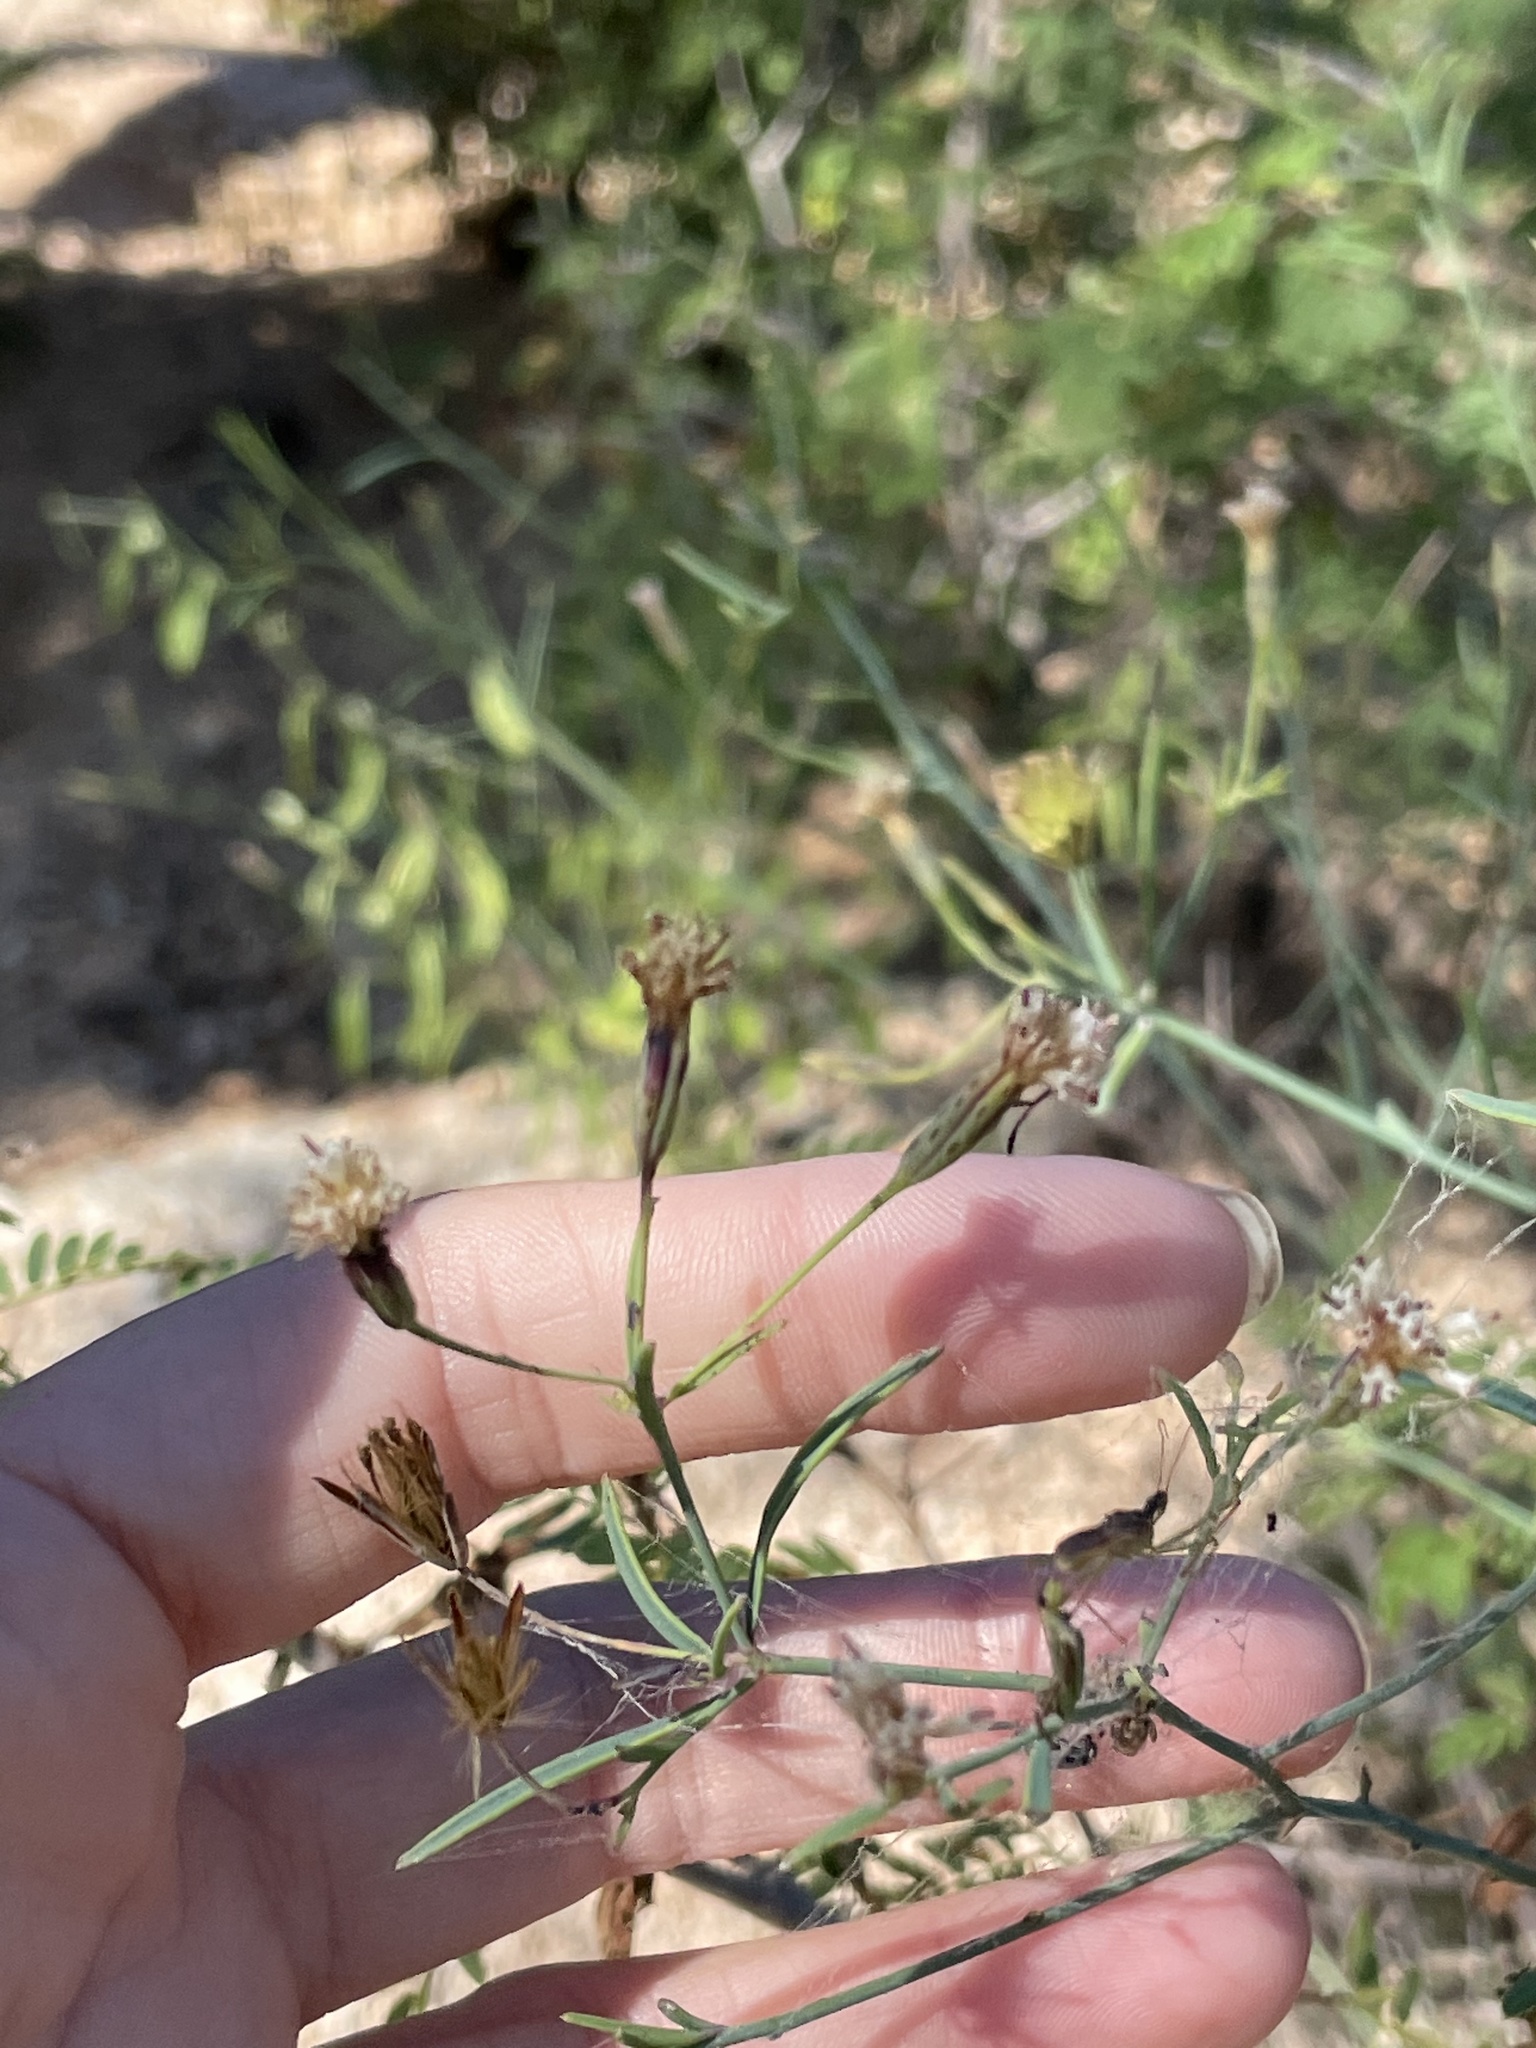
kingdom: Plantae
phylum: Tracheophyta
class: Magnoliopsida
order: Asterales
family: Asteraceae
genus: Porophyllum
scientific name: Porophyllum gracile
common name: Odora
